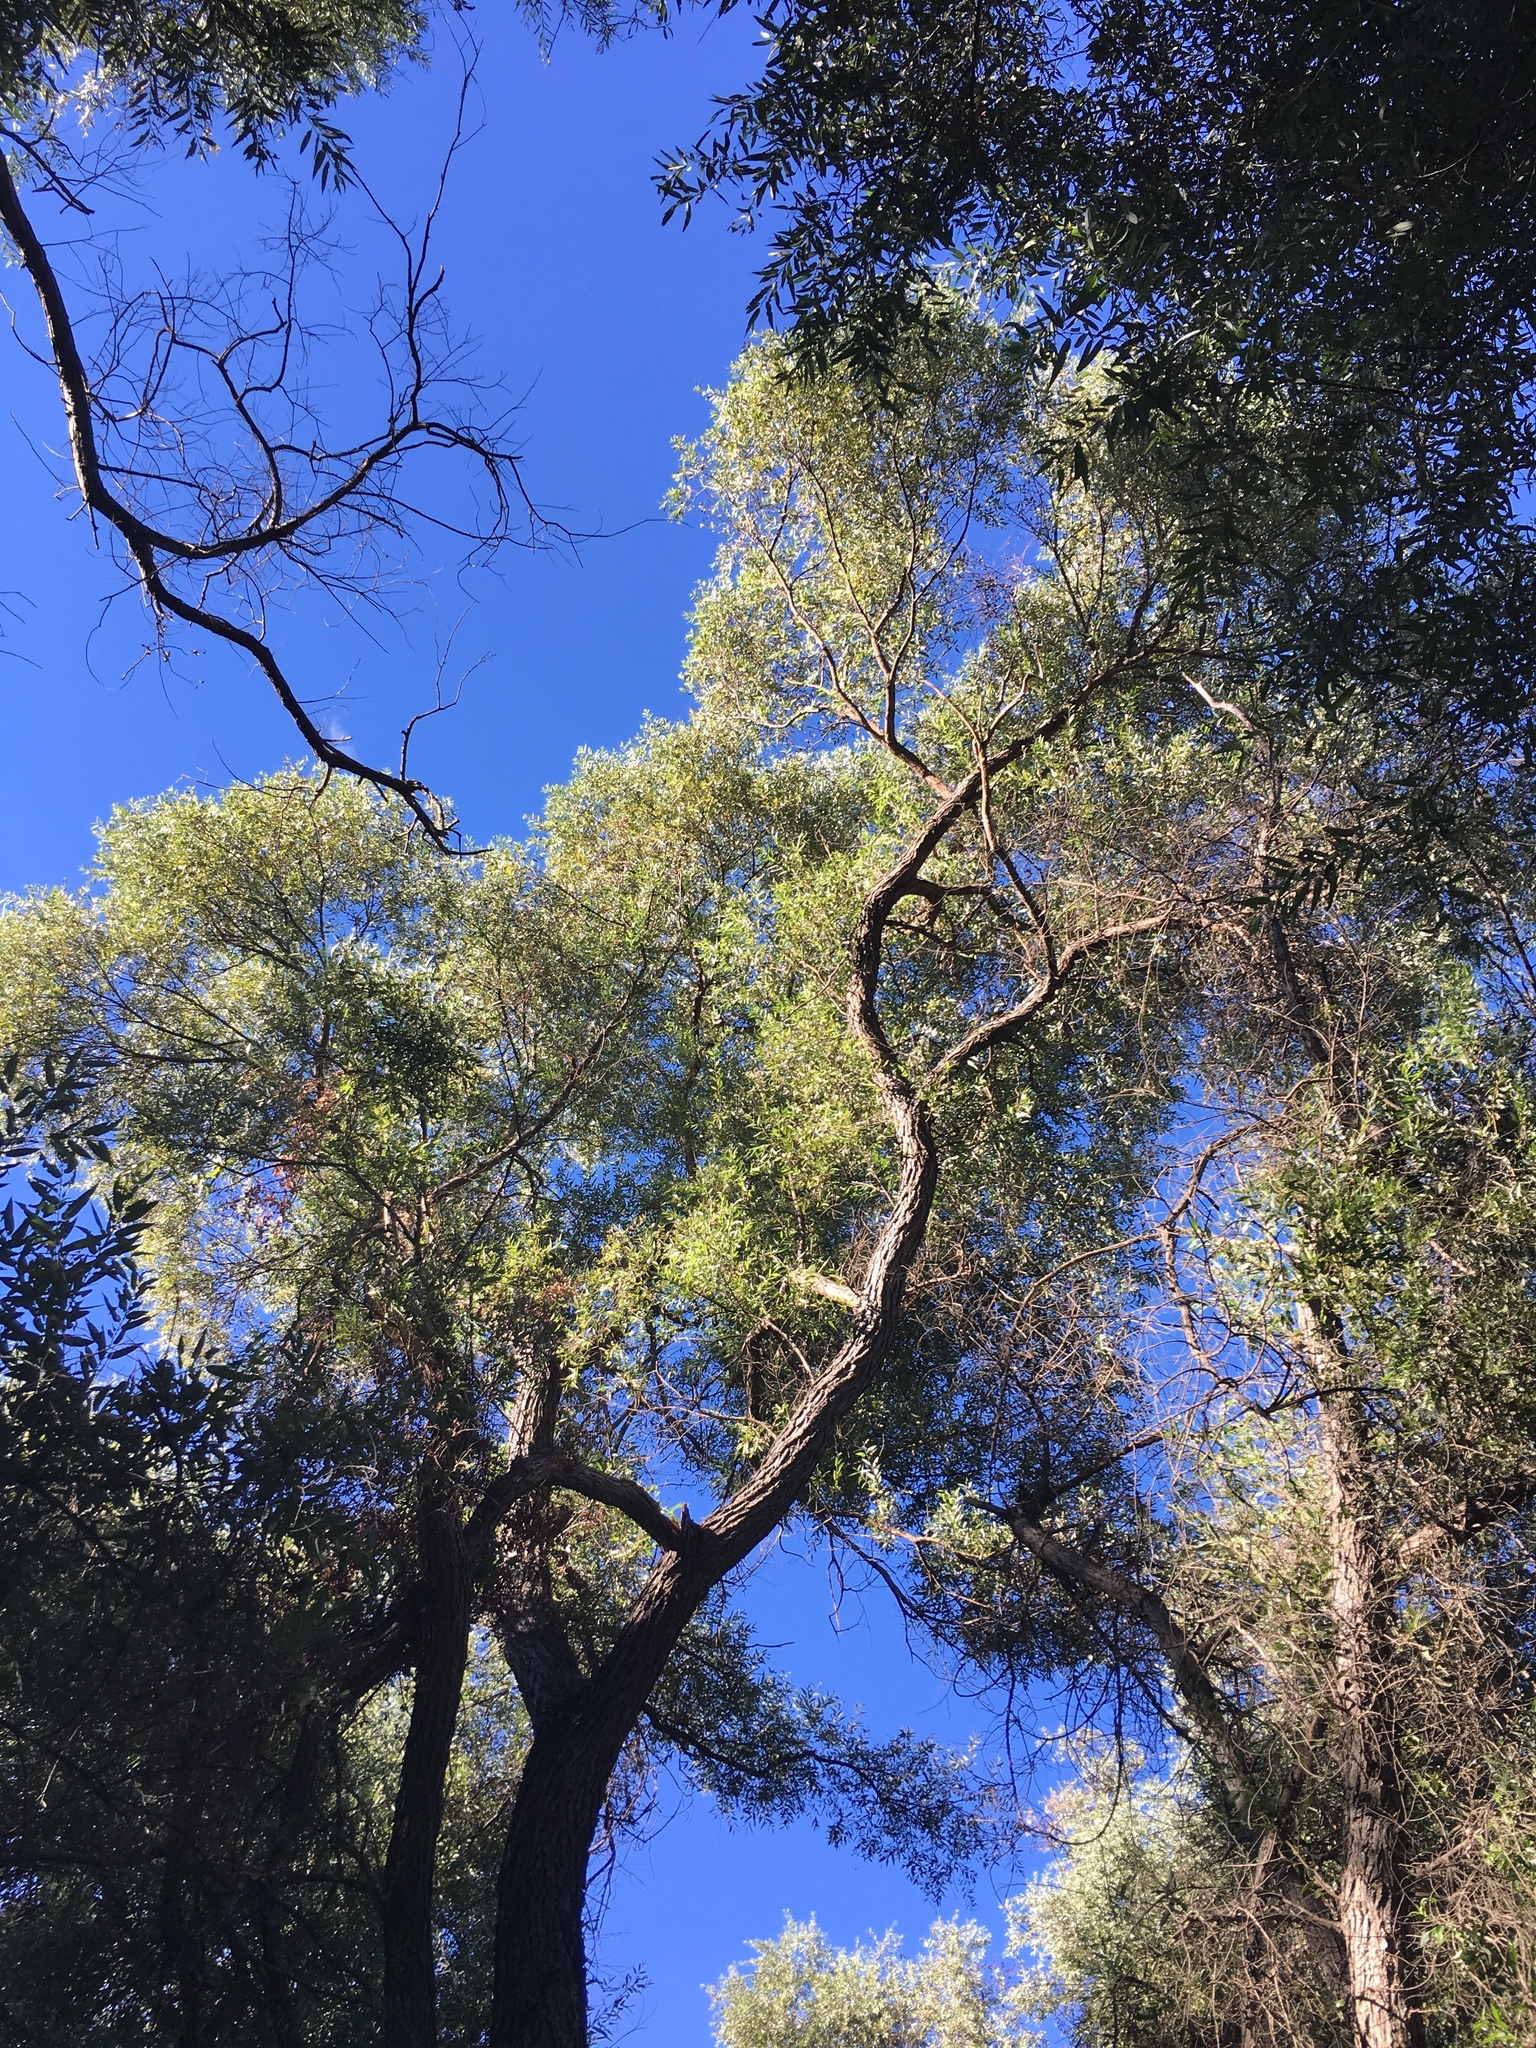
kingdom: Plantae
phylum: Tracheophyta
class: Magnoliopsida
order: Malpighiales
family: Salicaceae
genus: Salix
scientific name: Salix laevigata
